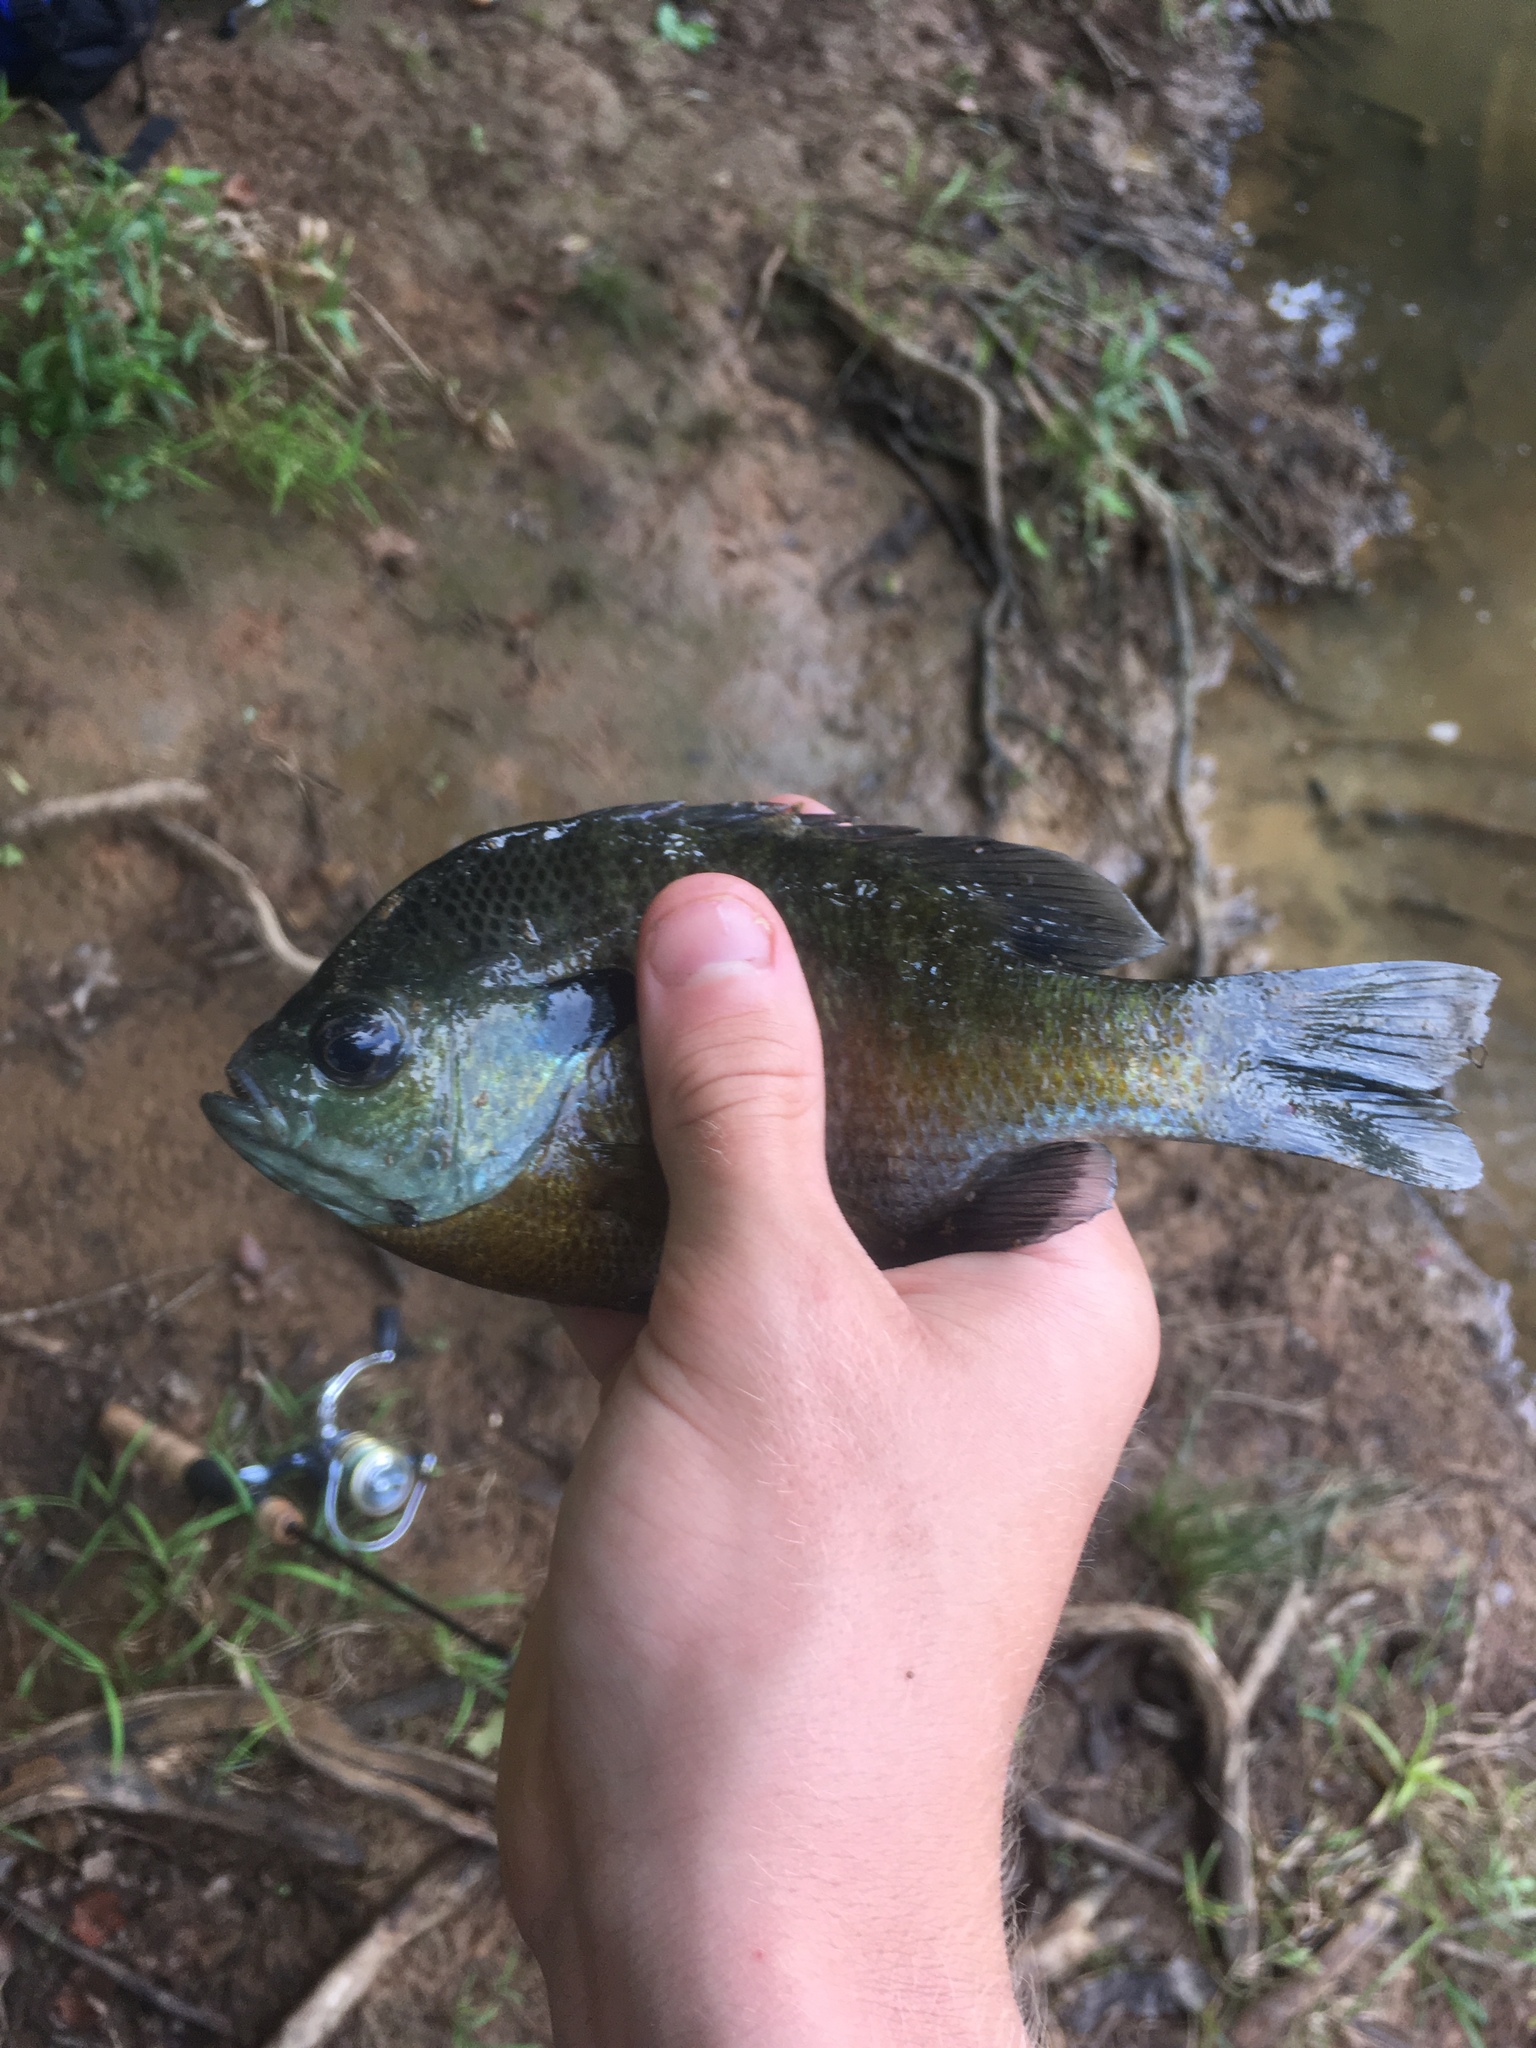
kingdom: Animalia
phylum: Chordata
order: Perciformes
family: Centrarchidae
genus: Lepomis
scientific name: Lepomis macrochirus
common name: Bluegill
